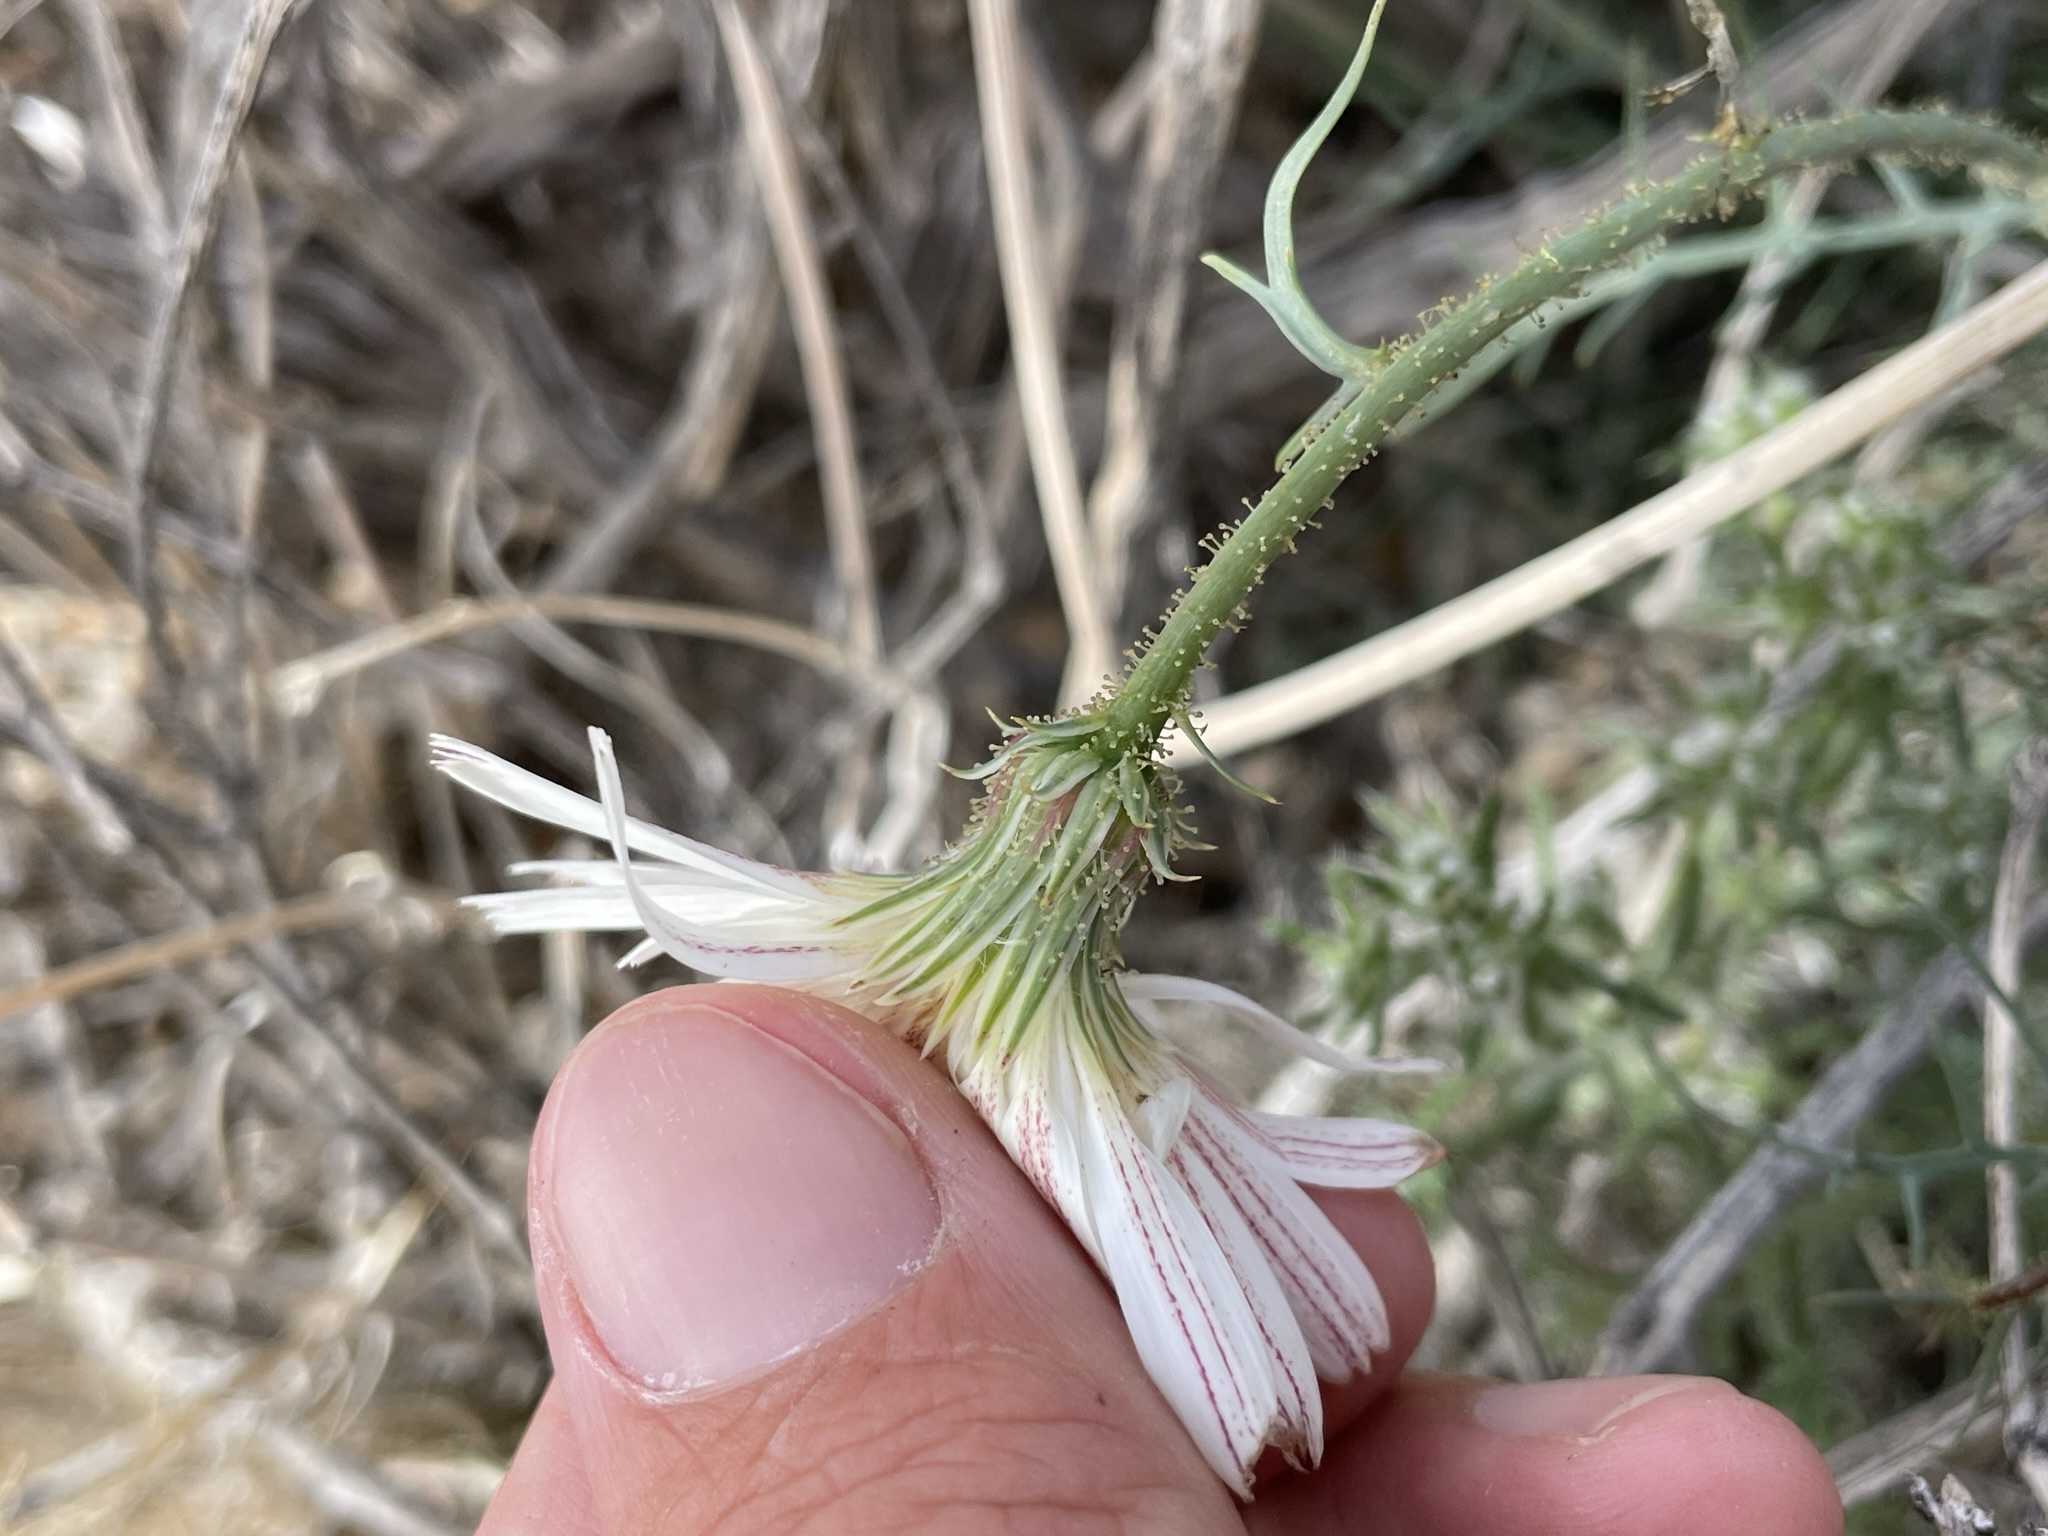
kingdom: Plantae
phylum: Tracheophyta
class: Magnoliopsida
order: Asterales
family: Asteraceae
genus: Calycoseris
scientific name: Calycoseris wrightii
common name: White tackstem
